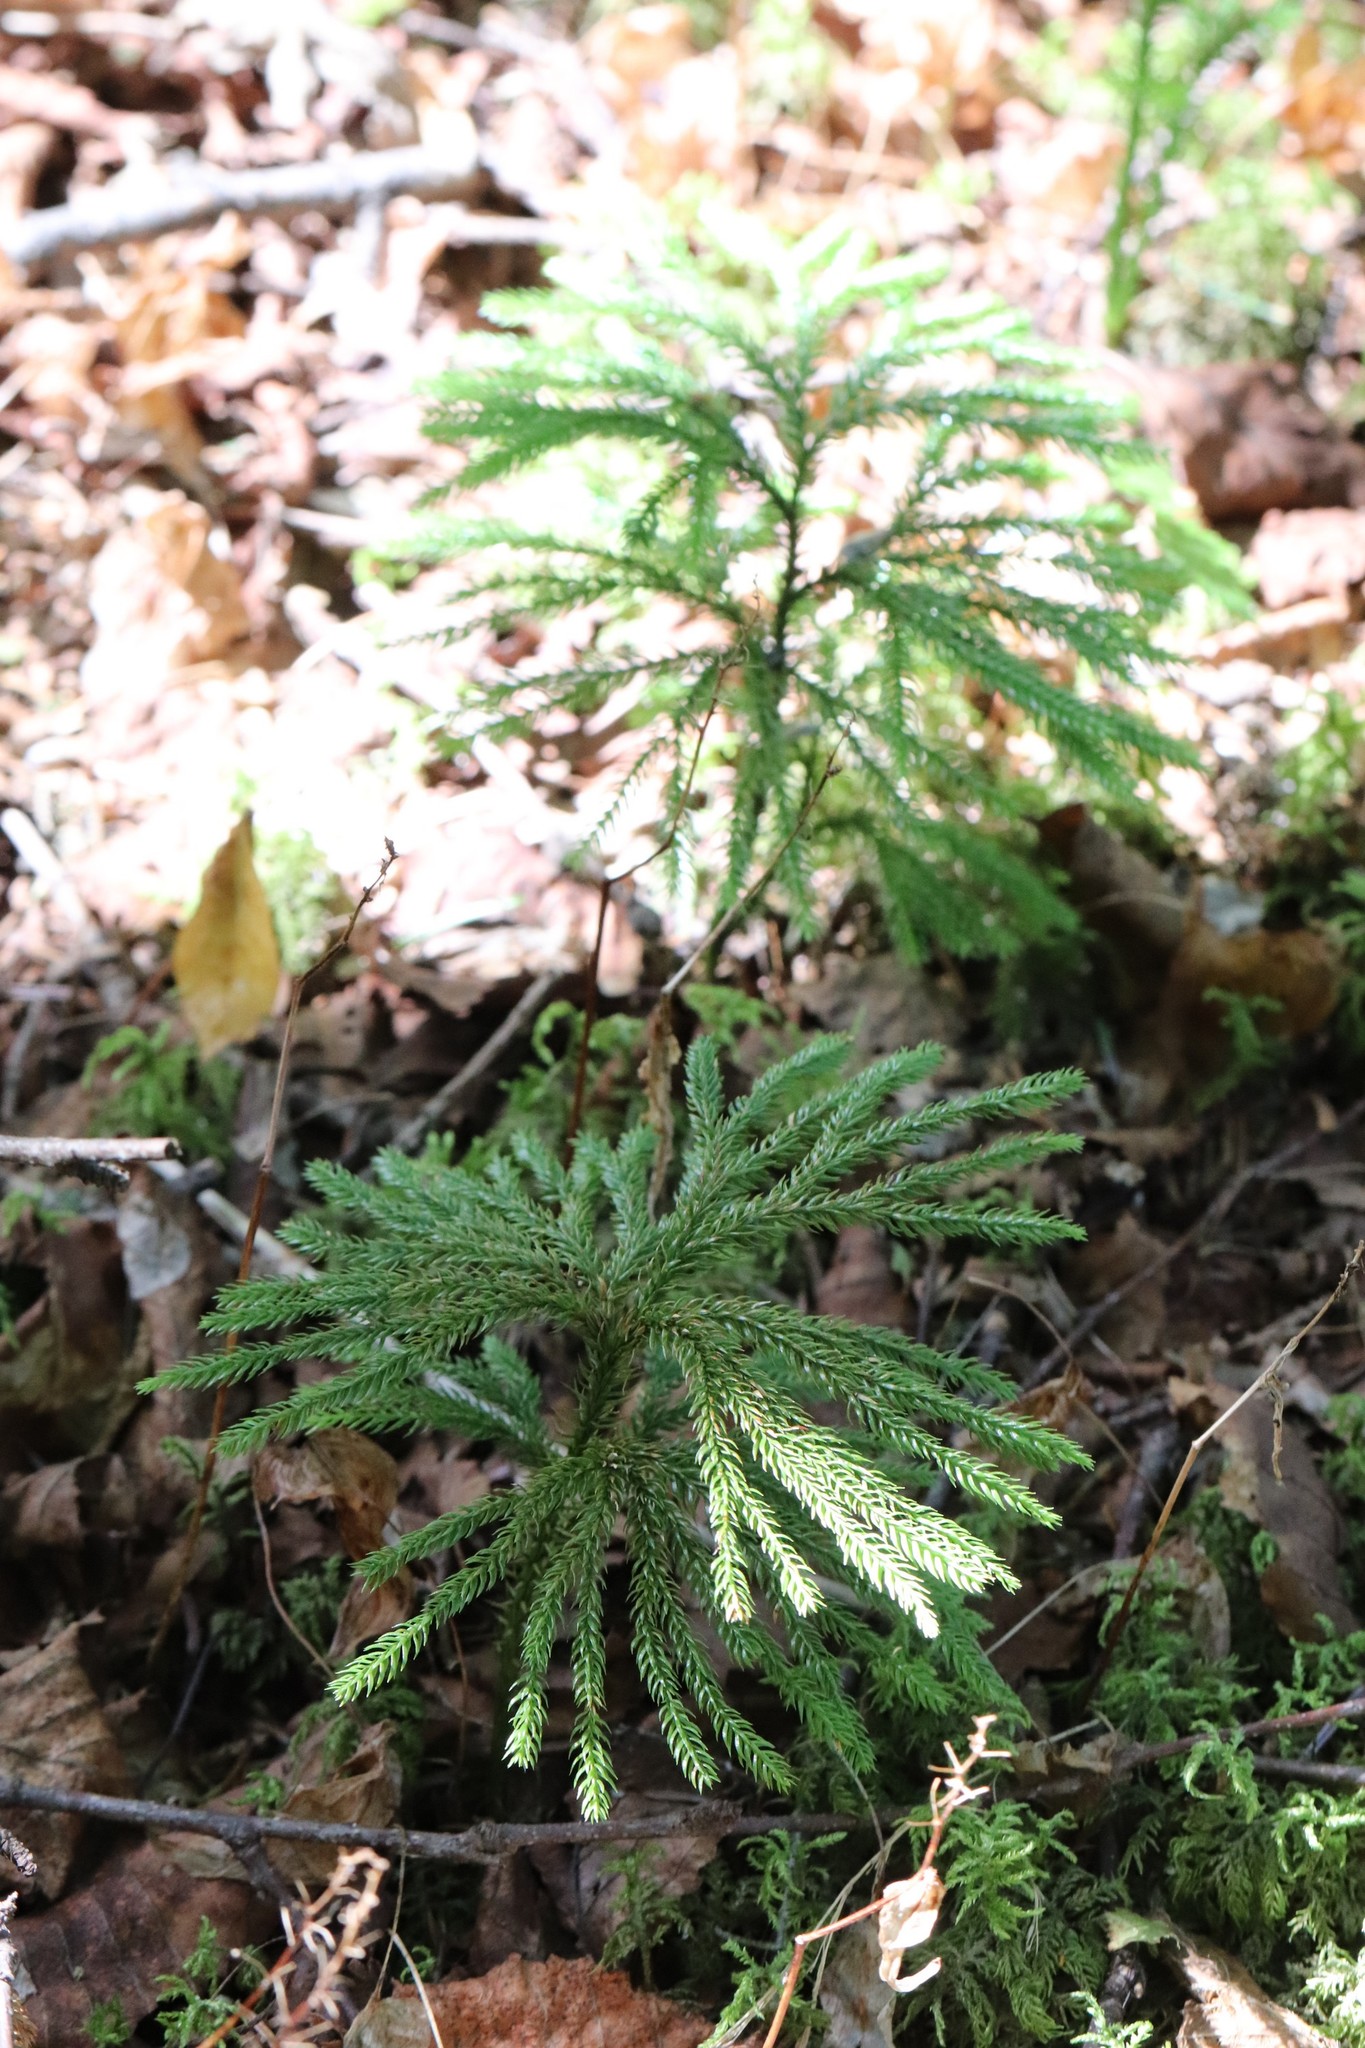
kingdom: Plantae
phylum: Tracheophyta
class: Lycopodiopsida
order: Lycopodiales
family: Lycopodiaceae
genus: Dendrolycopodium
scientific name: Dendrolycopodium obscurum
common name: Common ground-pine
